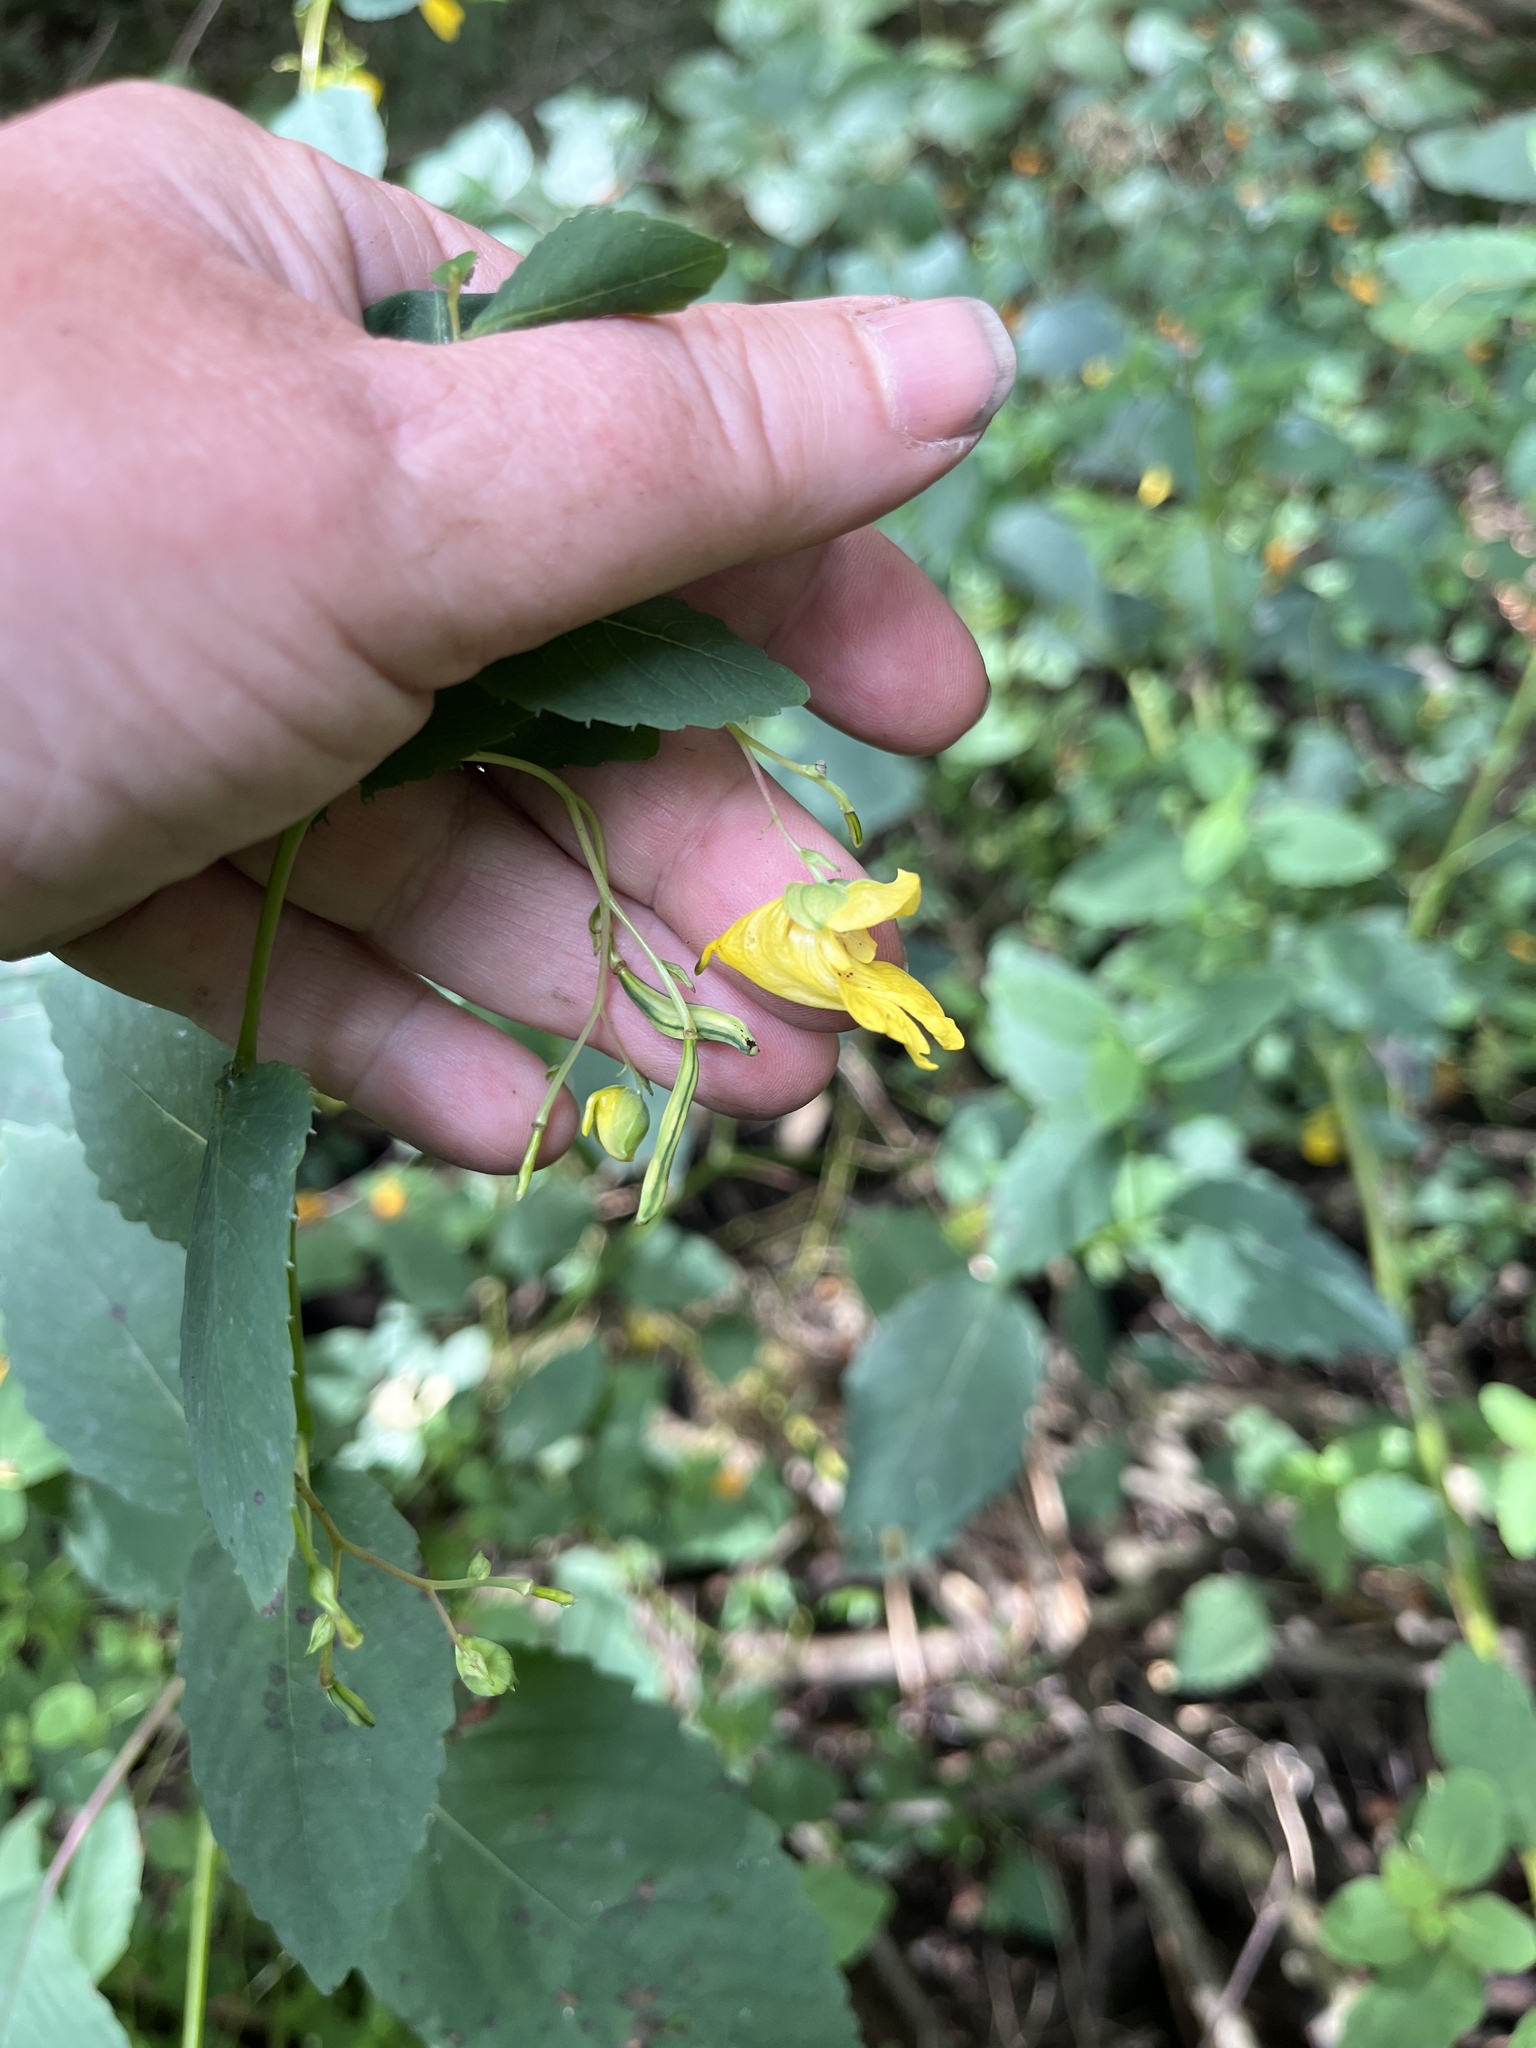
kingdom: Plantae
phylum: Tracheophyta
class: Magnoliopsida
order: Ericales
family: Balsaminaceae
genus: Impatiens
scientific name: Impatiens pallida
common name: Pale snapweed
